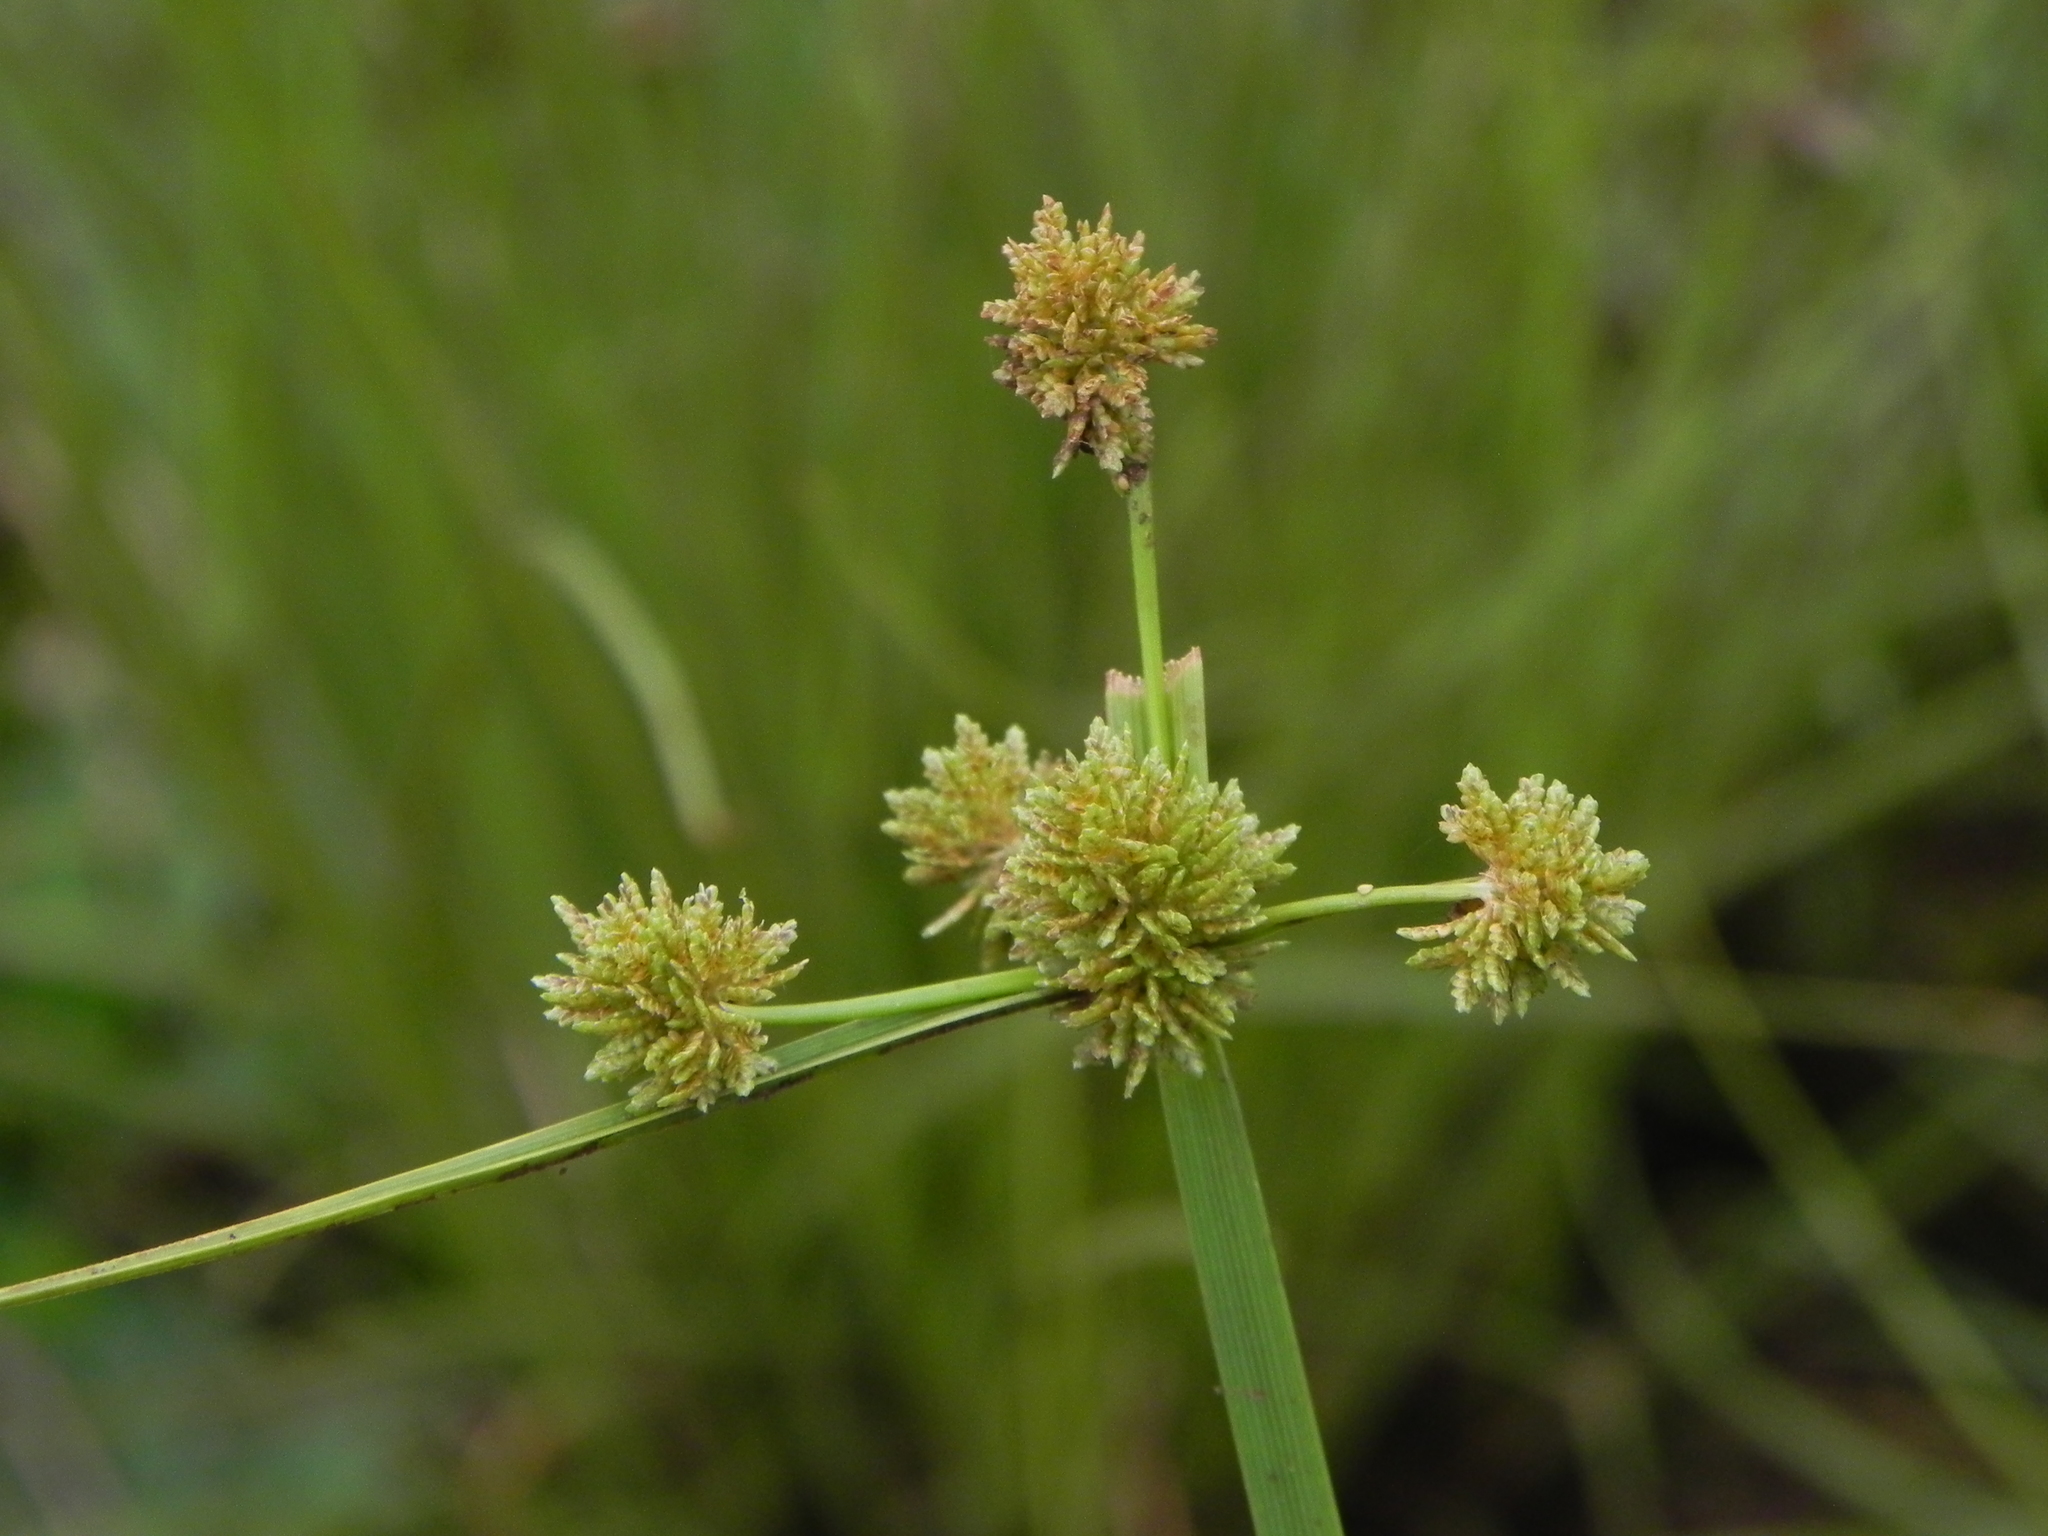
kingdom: Plantae
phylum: Tracheophyta
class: Liliopsida
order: Poales
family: Cyperaceae
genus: Cyperus
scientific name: Cyperus difformis
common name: Variable flatsedge
